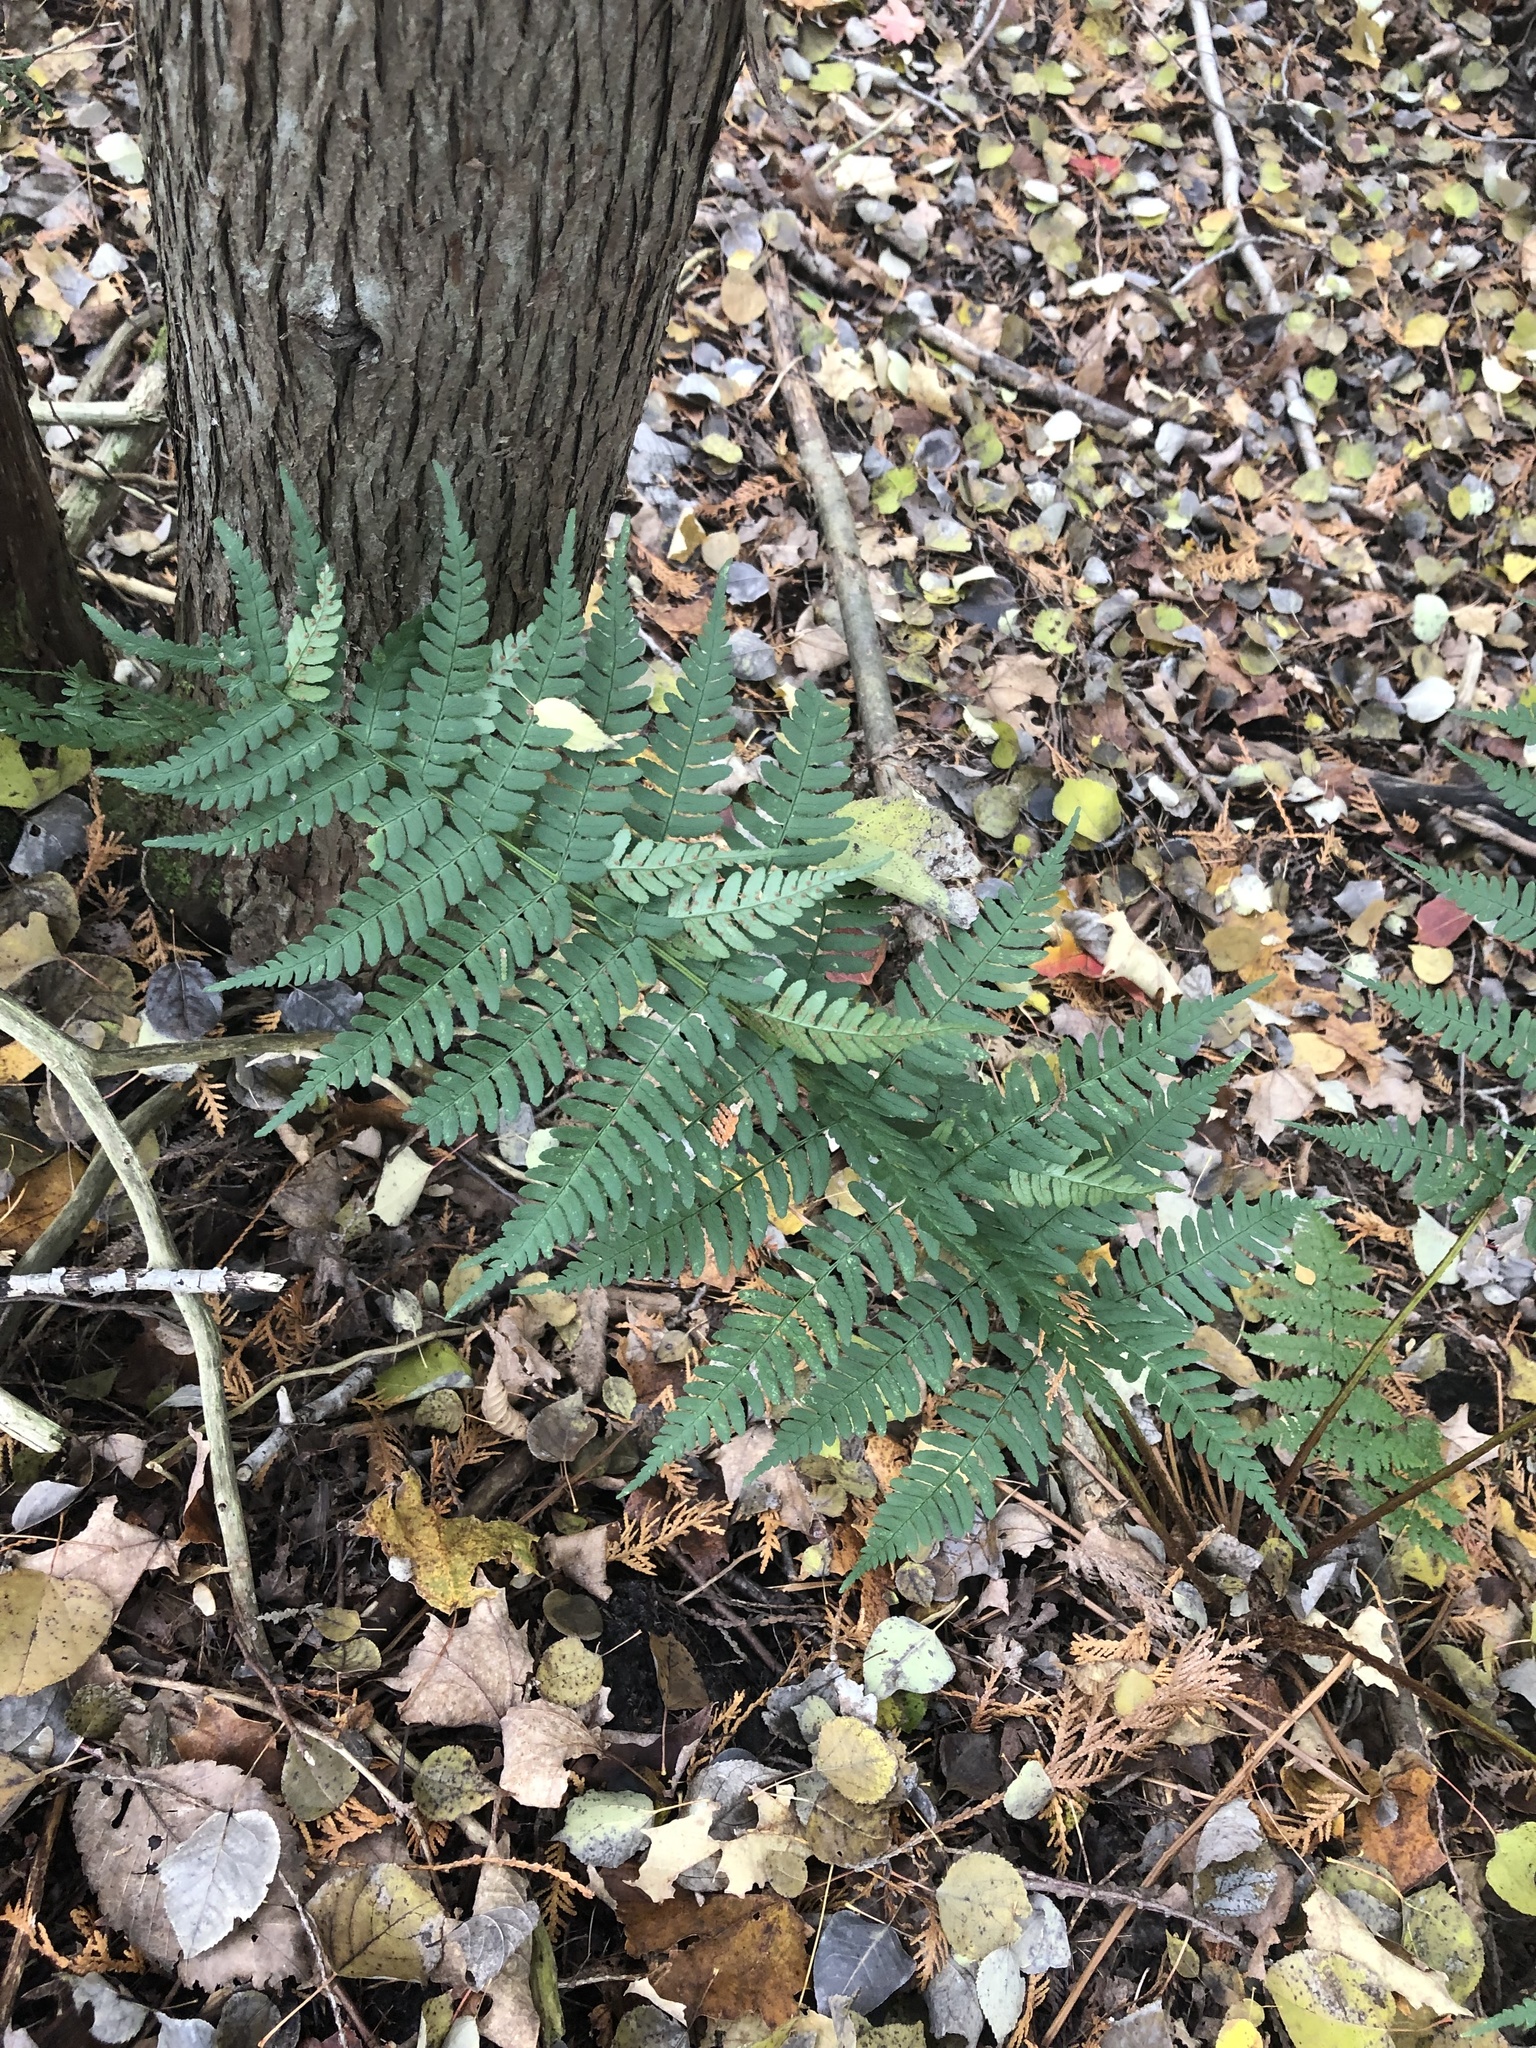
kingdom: Plantae
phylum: Tracheophyta
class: Polypodiopsida
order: Polypodiales
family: Dryopteridaceae
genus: Dryopteris
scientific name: Dryopteris marginalis
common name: Marginal wood fern
